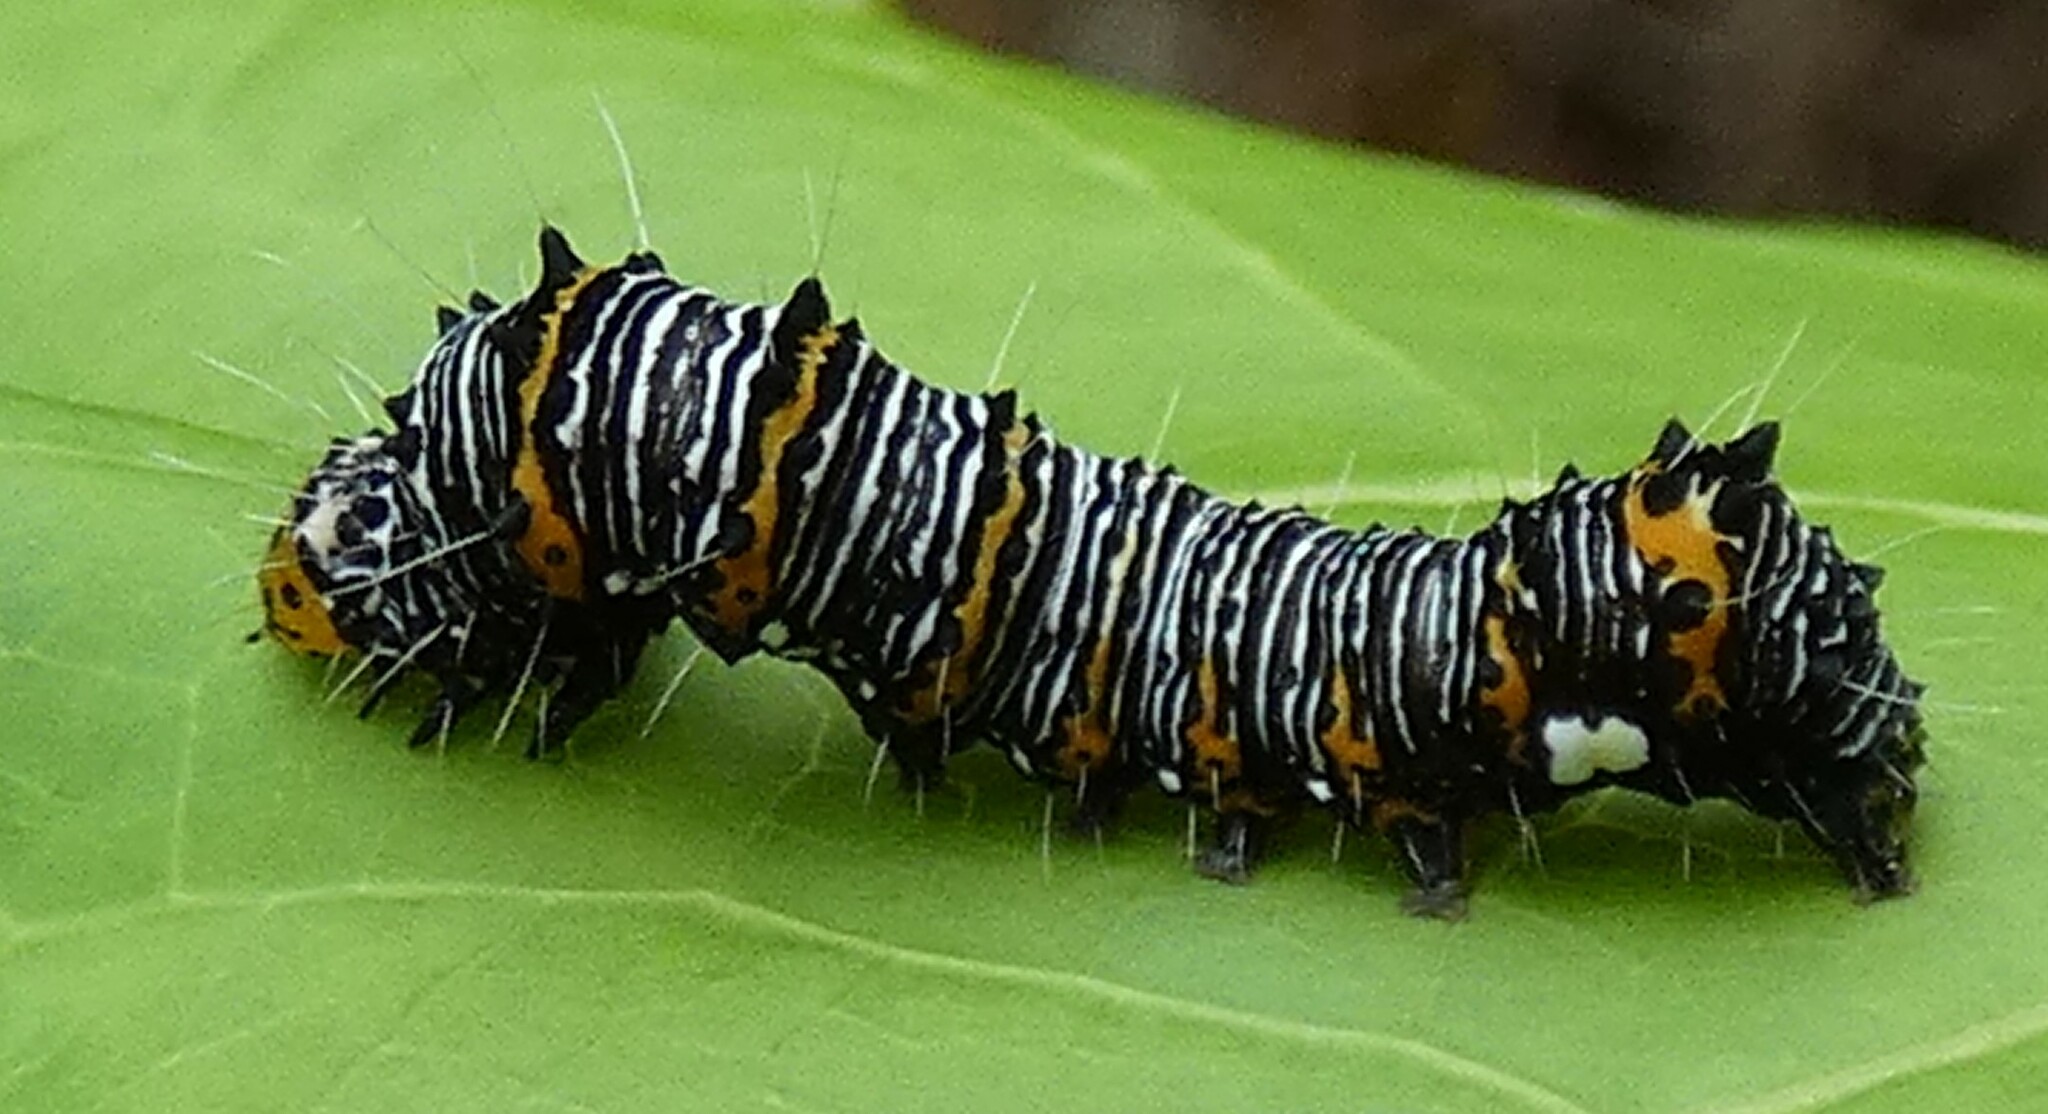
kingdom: Animalia
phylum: Arthropoda
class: Insecta
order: Lepidoptera
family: Noctuidae
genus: Alypia
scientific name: Alypia wittfeldii
